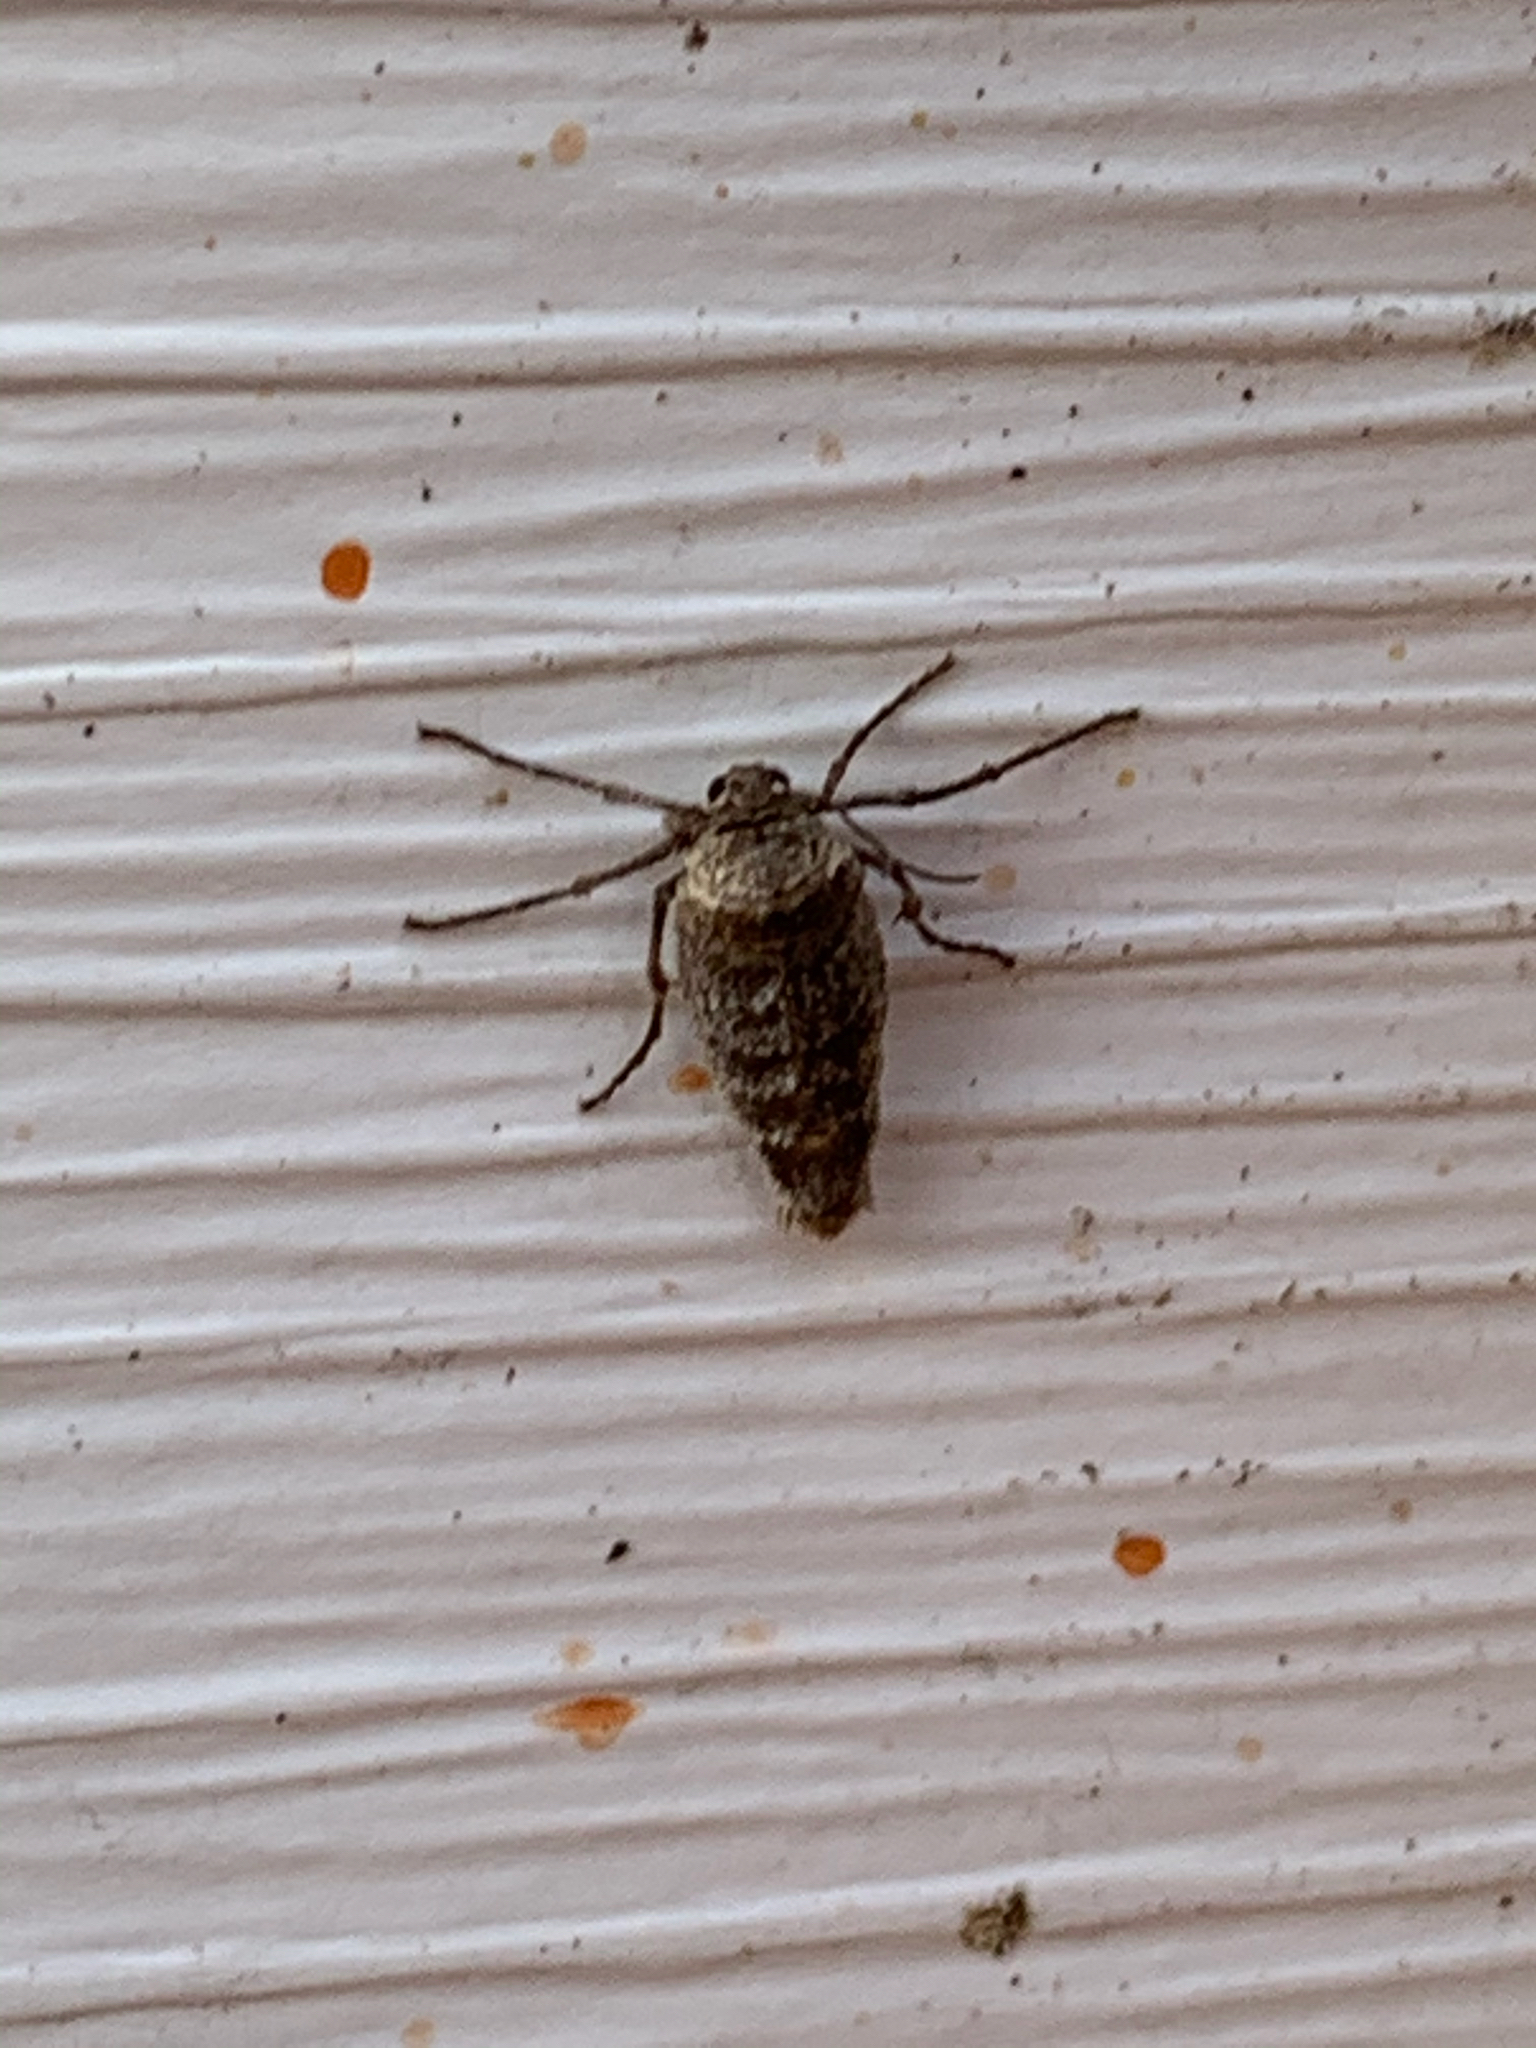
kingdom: Animalia
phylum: Arthropoda
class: Insecta
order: Lepidoptera
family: Geometridae
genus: Alsophila
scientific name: Alsophila pometaria
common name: Fall cankerworm
